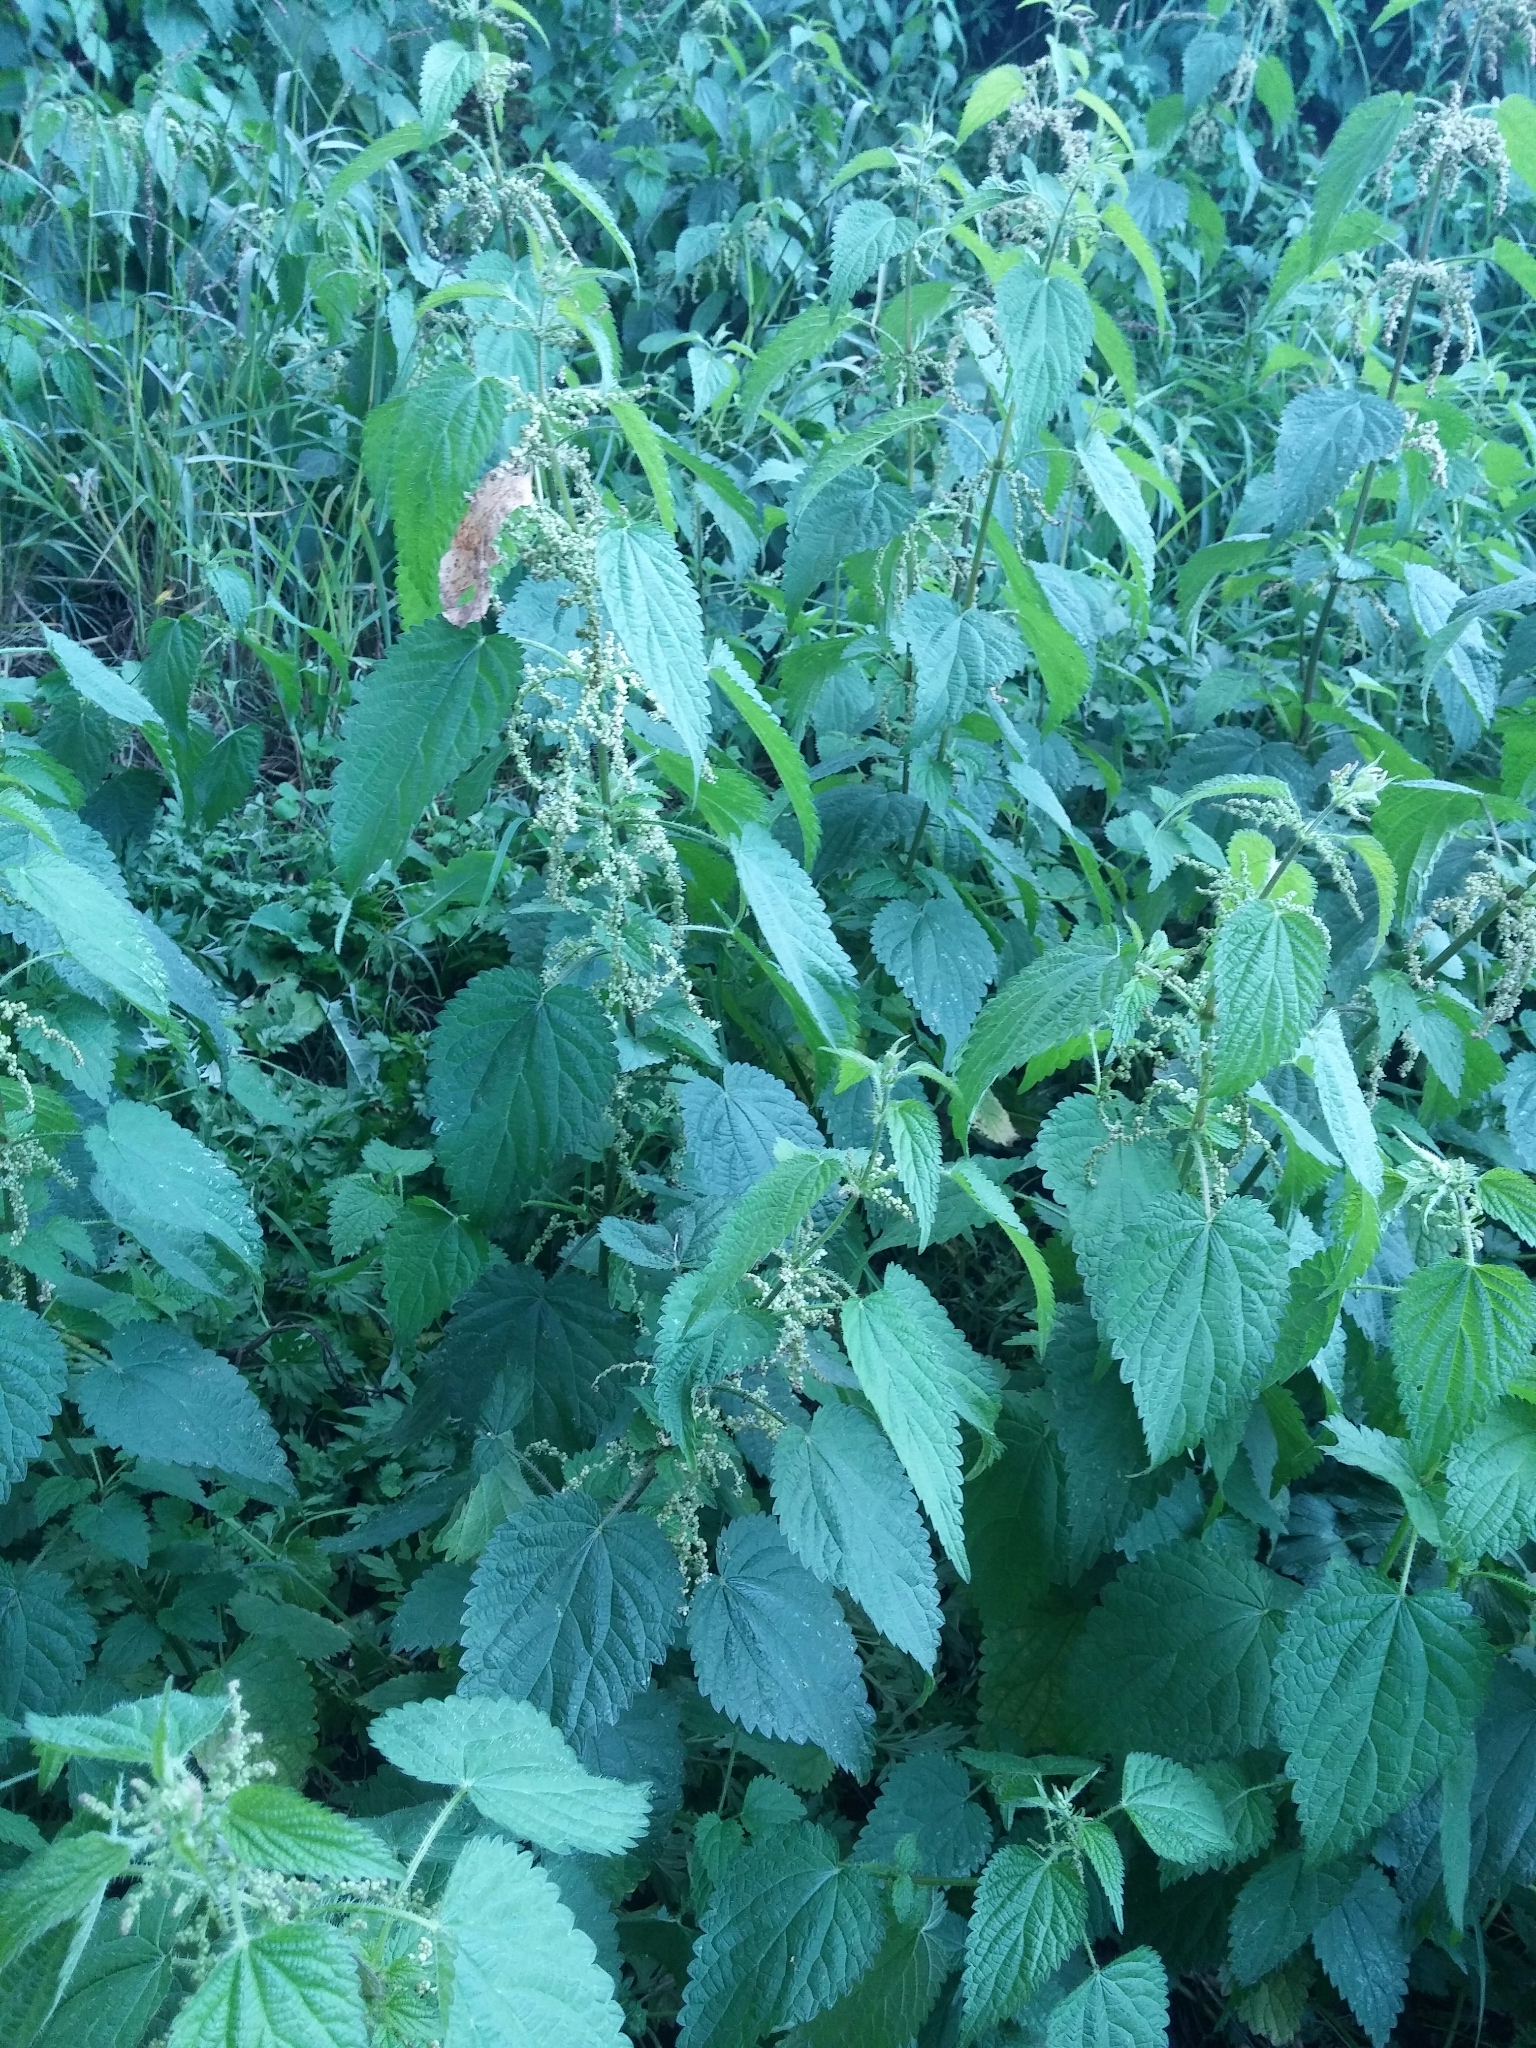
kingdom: Plantae
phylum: Tracheophyta
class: Magnoliopsida
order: Rosales
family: Urticaceae
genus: Urtica
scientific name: Urtica dioica
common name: Common nettle
